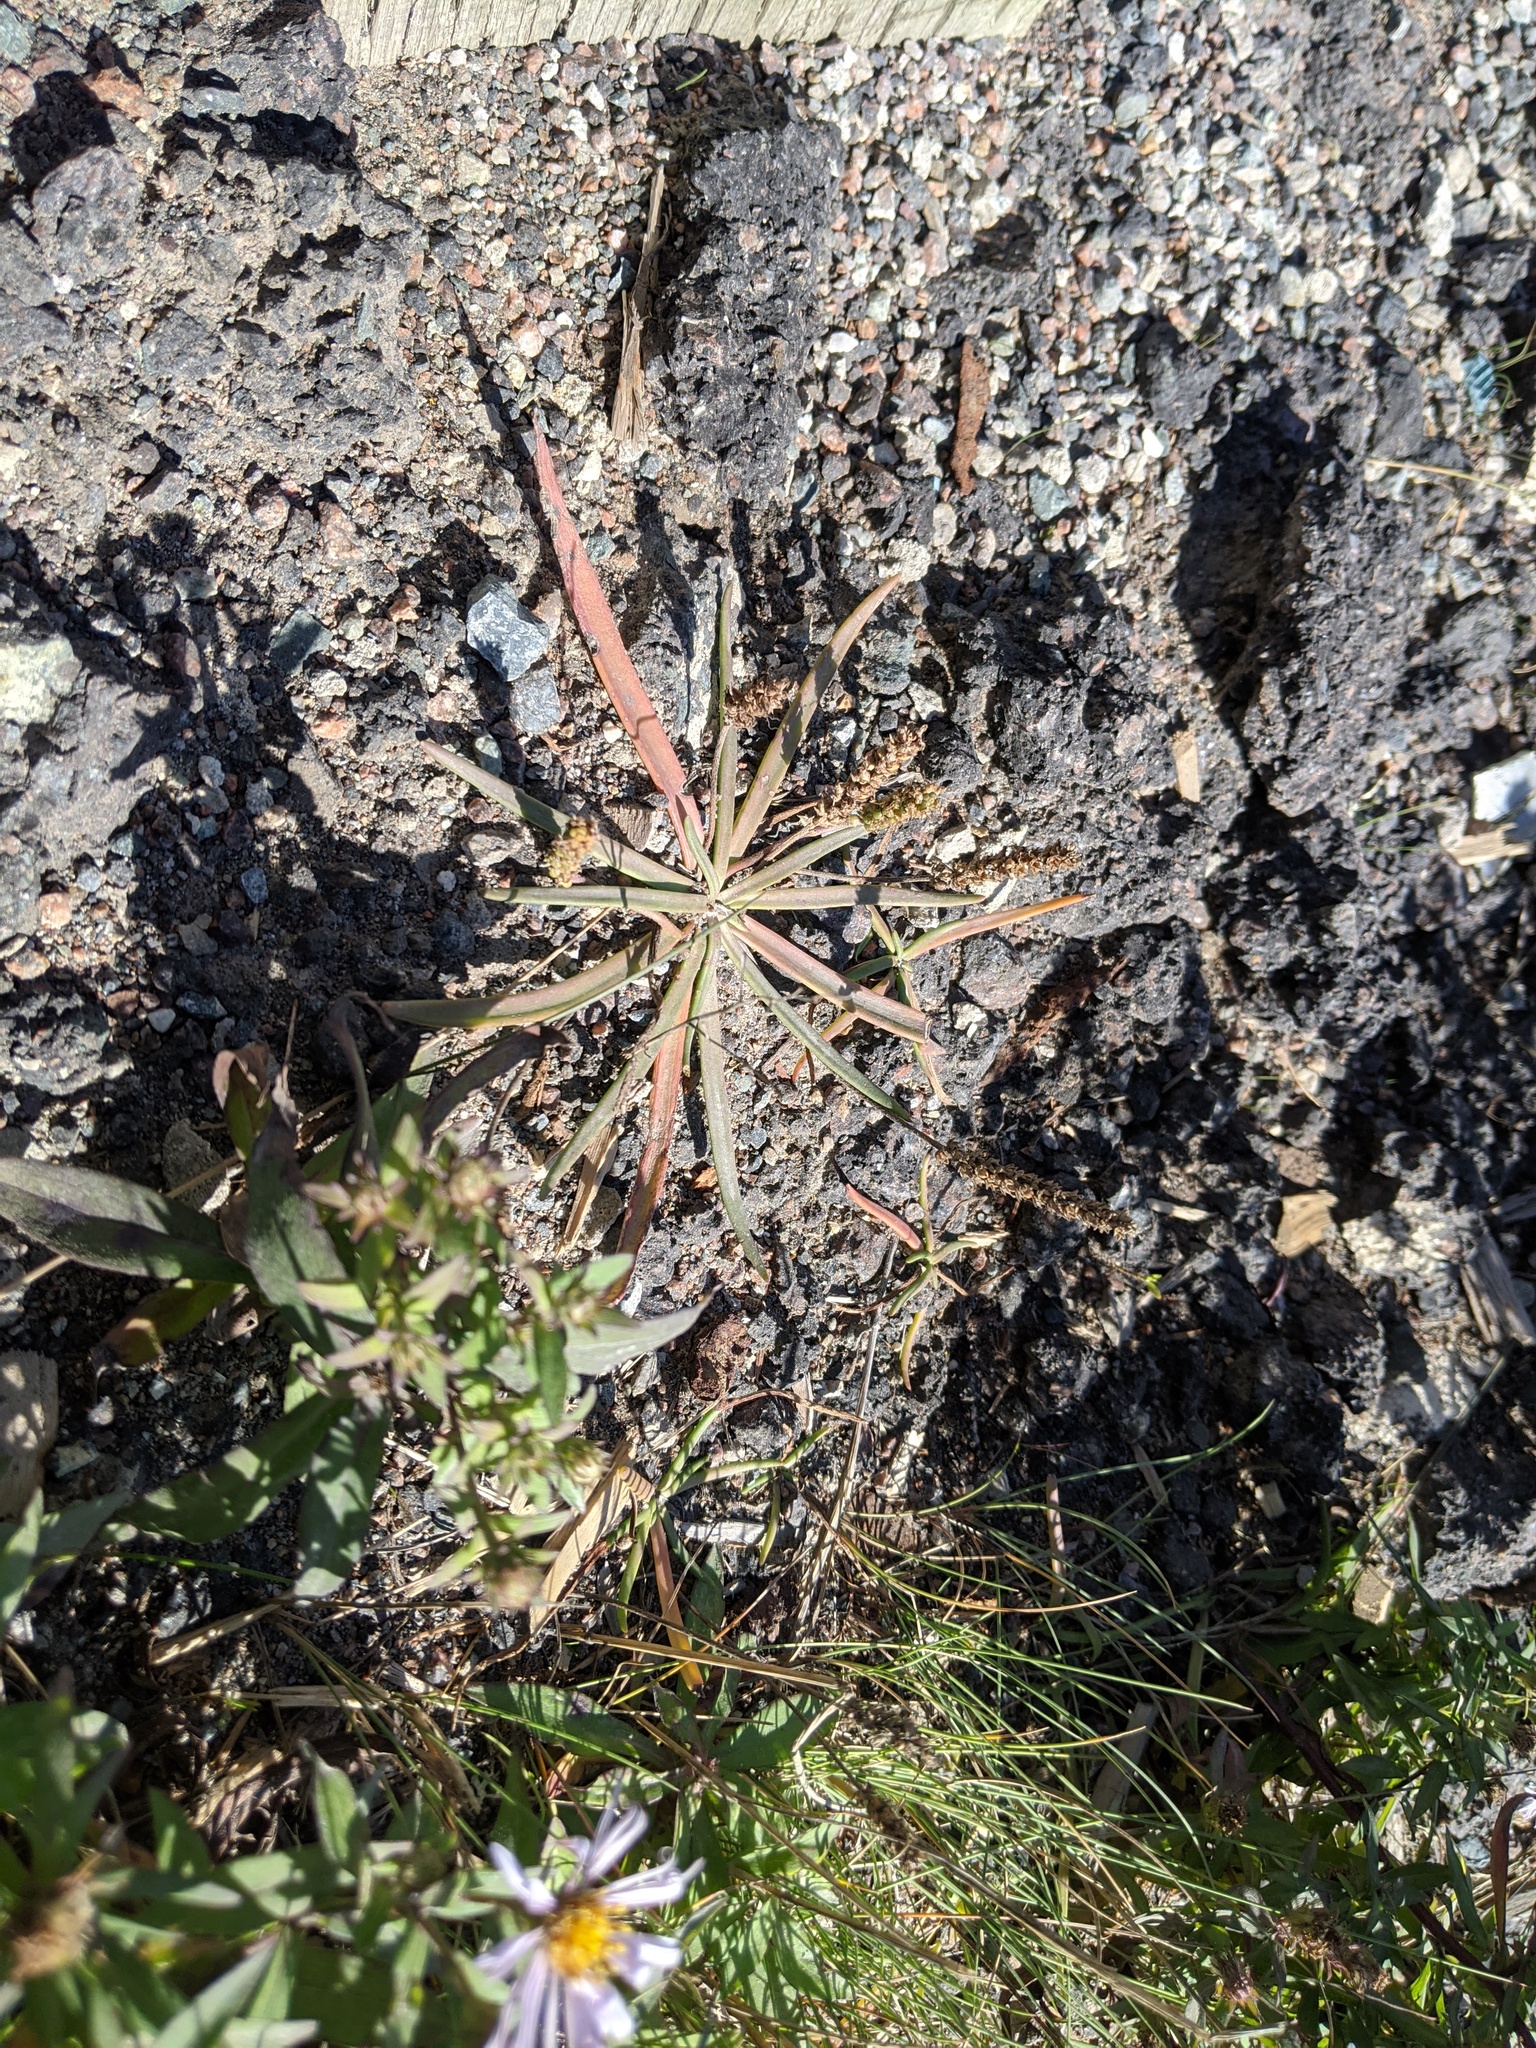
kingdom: Plantae
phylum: Tracheophyta
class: Magnoliopsida
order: Lamiales
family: Plantaginaceae
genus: Plantago
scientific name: Plantago maritima
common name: Sea plantain
